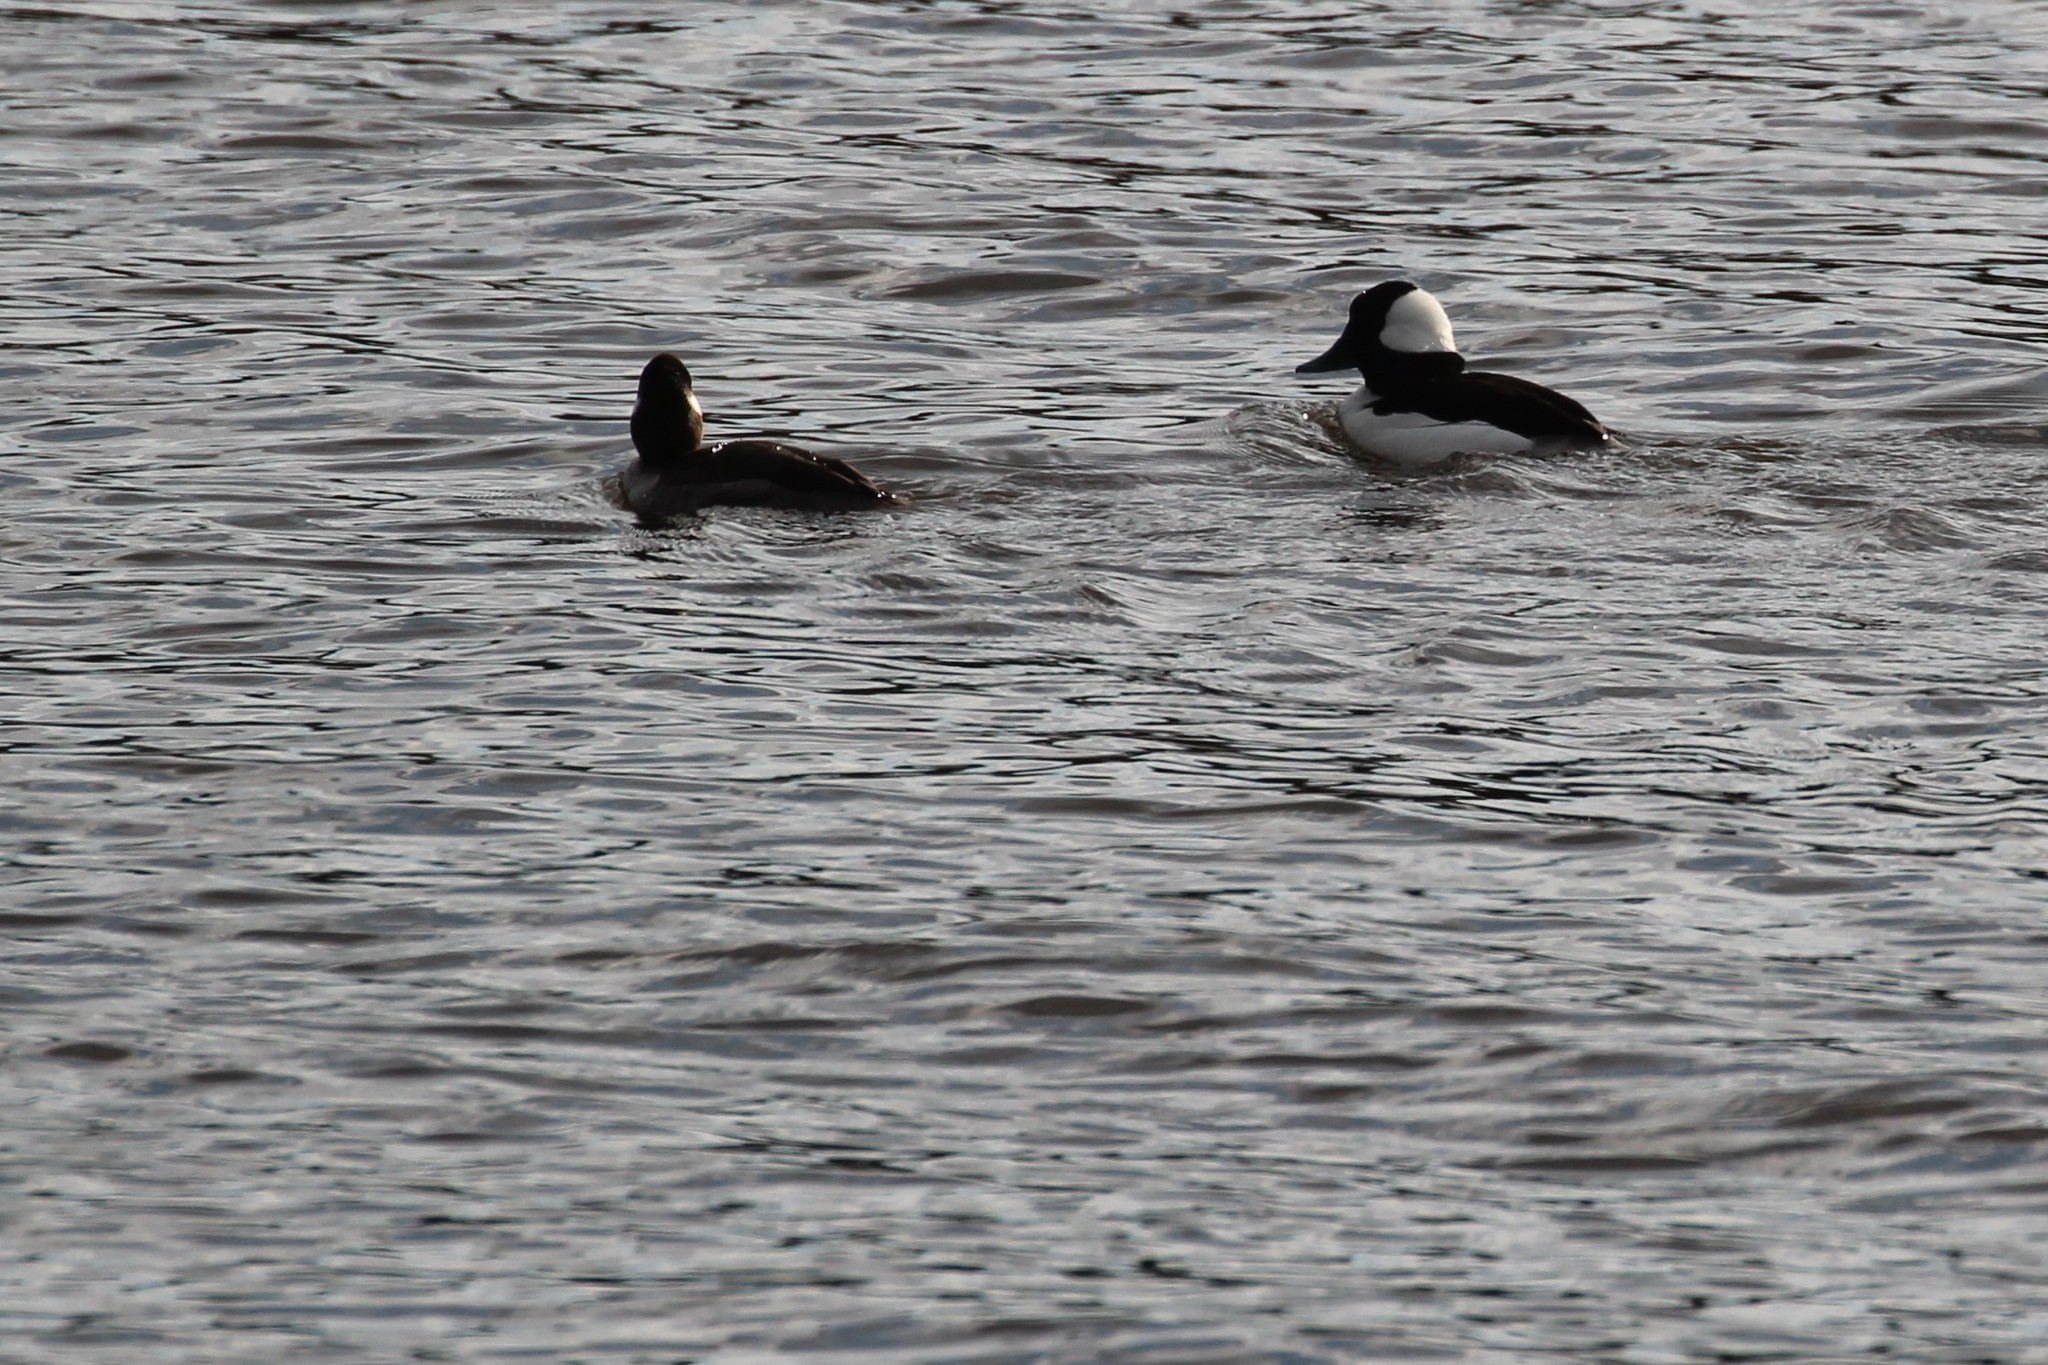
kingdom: Animalia
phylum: Chordata
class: Aves
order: Anseriformes
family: Anatidae
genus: Bucephala
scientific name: Bucephala albeola
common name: Bufflehead
